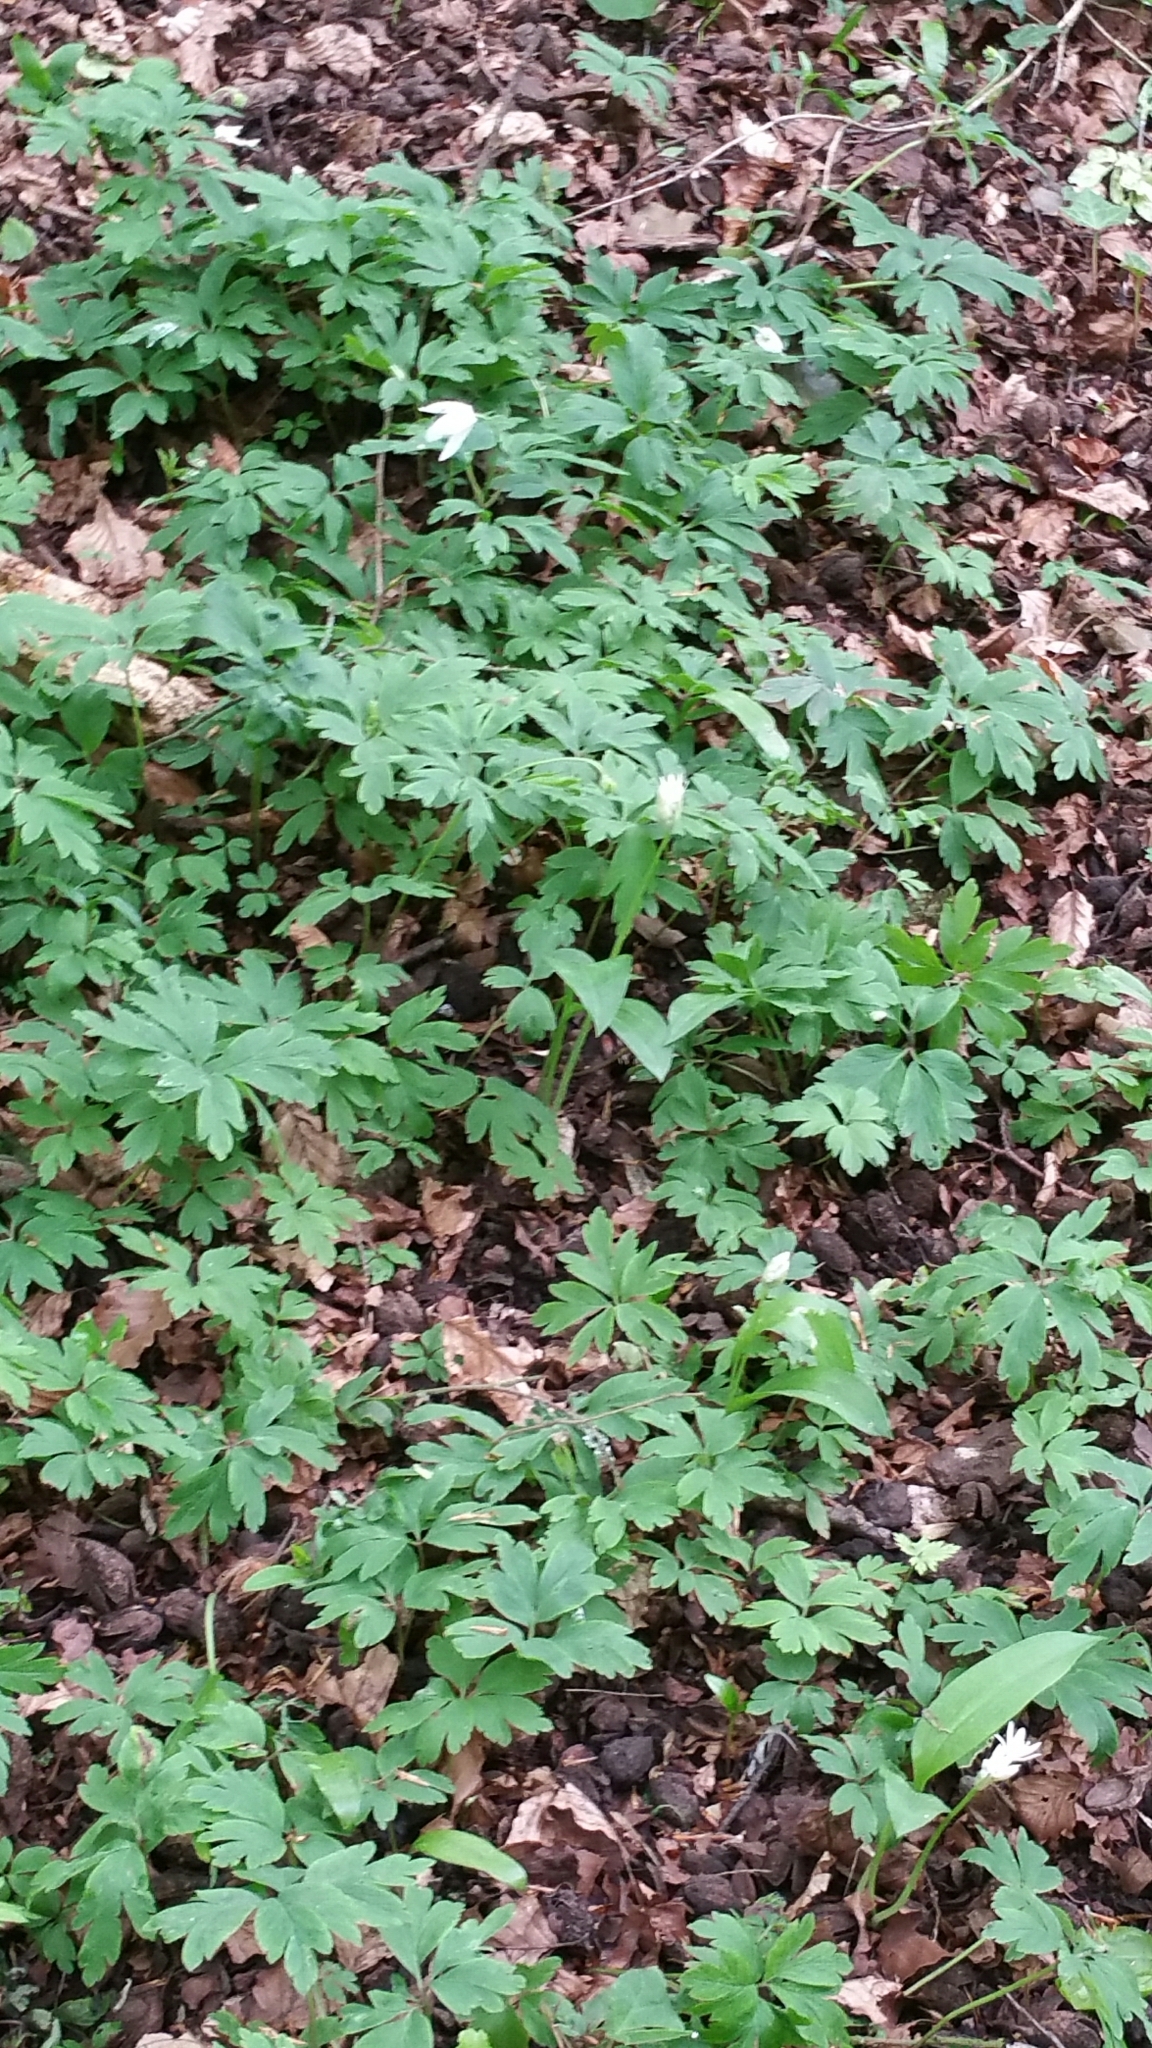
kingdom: Plantae
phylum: Tracheophyta
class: Magnoliopsida
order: Ranunculales
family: Ranunculaceae
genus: Anemone
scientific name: Anemone nemorosa
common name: Wood anemone
